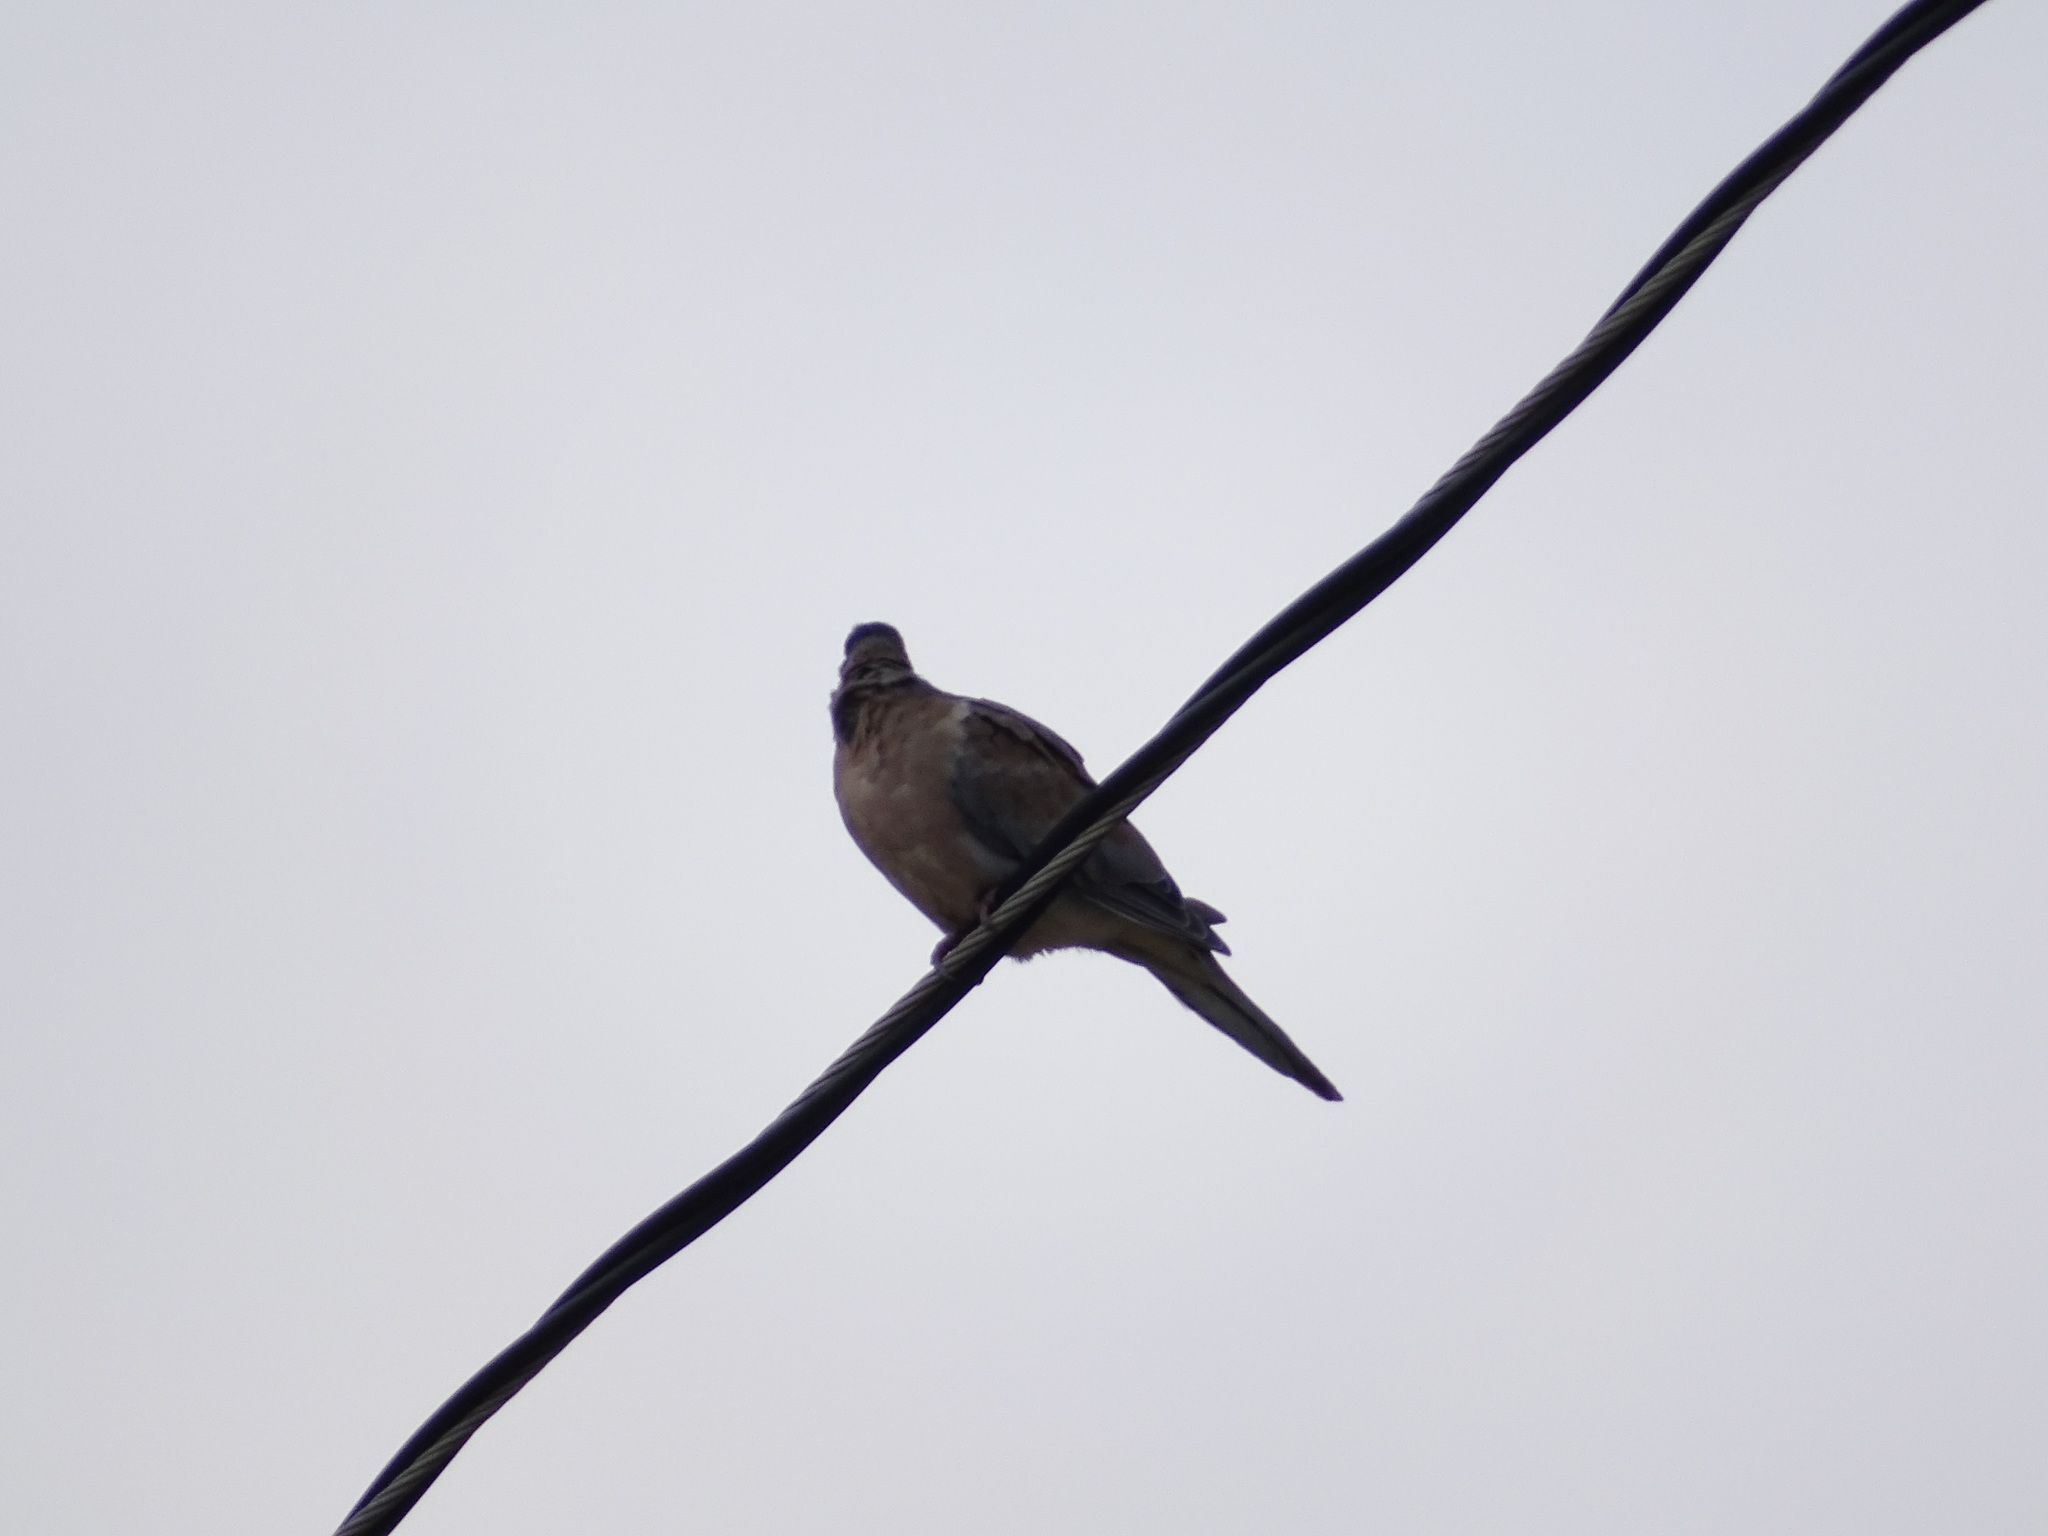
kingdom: Animalia
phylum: Chordata
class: Aves
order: Columbiformes
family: Columbidae
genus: Zenaida
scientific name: Zenaida macroura
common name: Mourning dove
